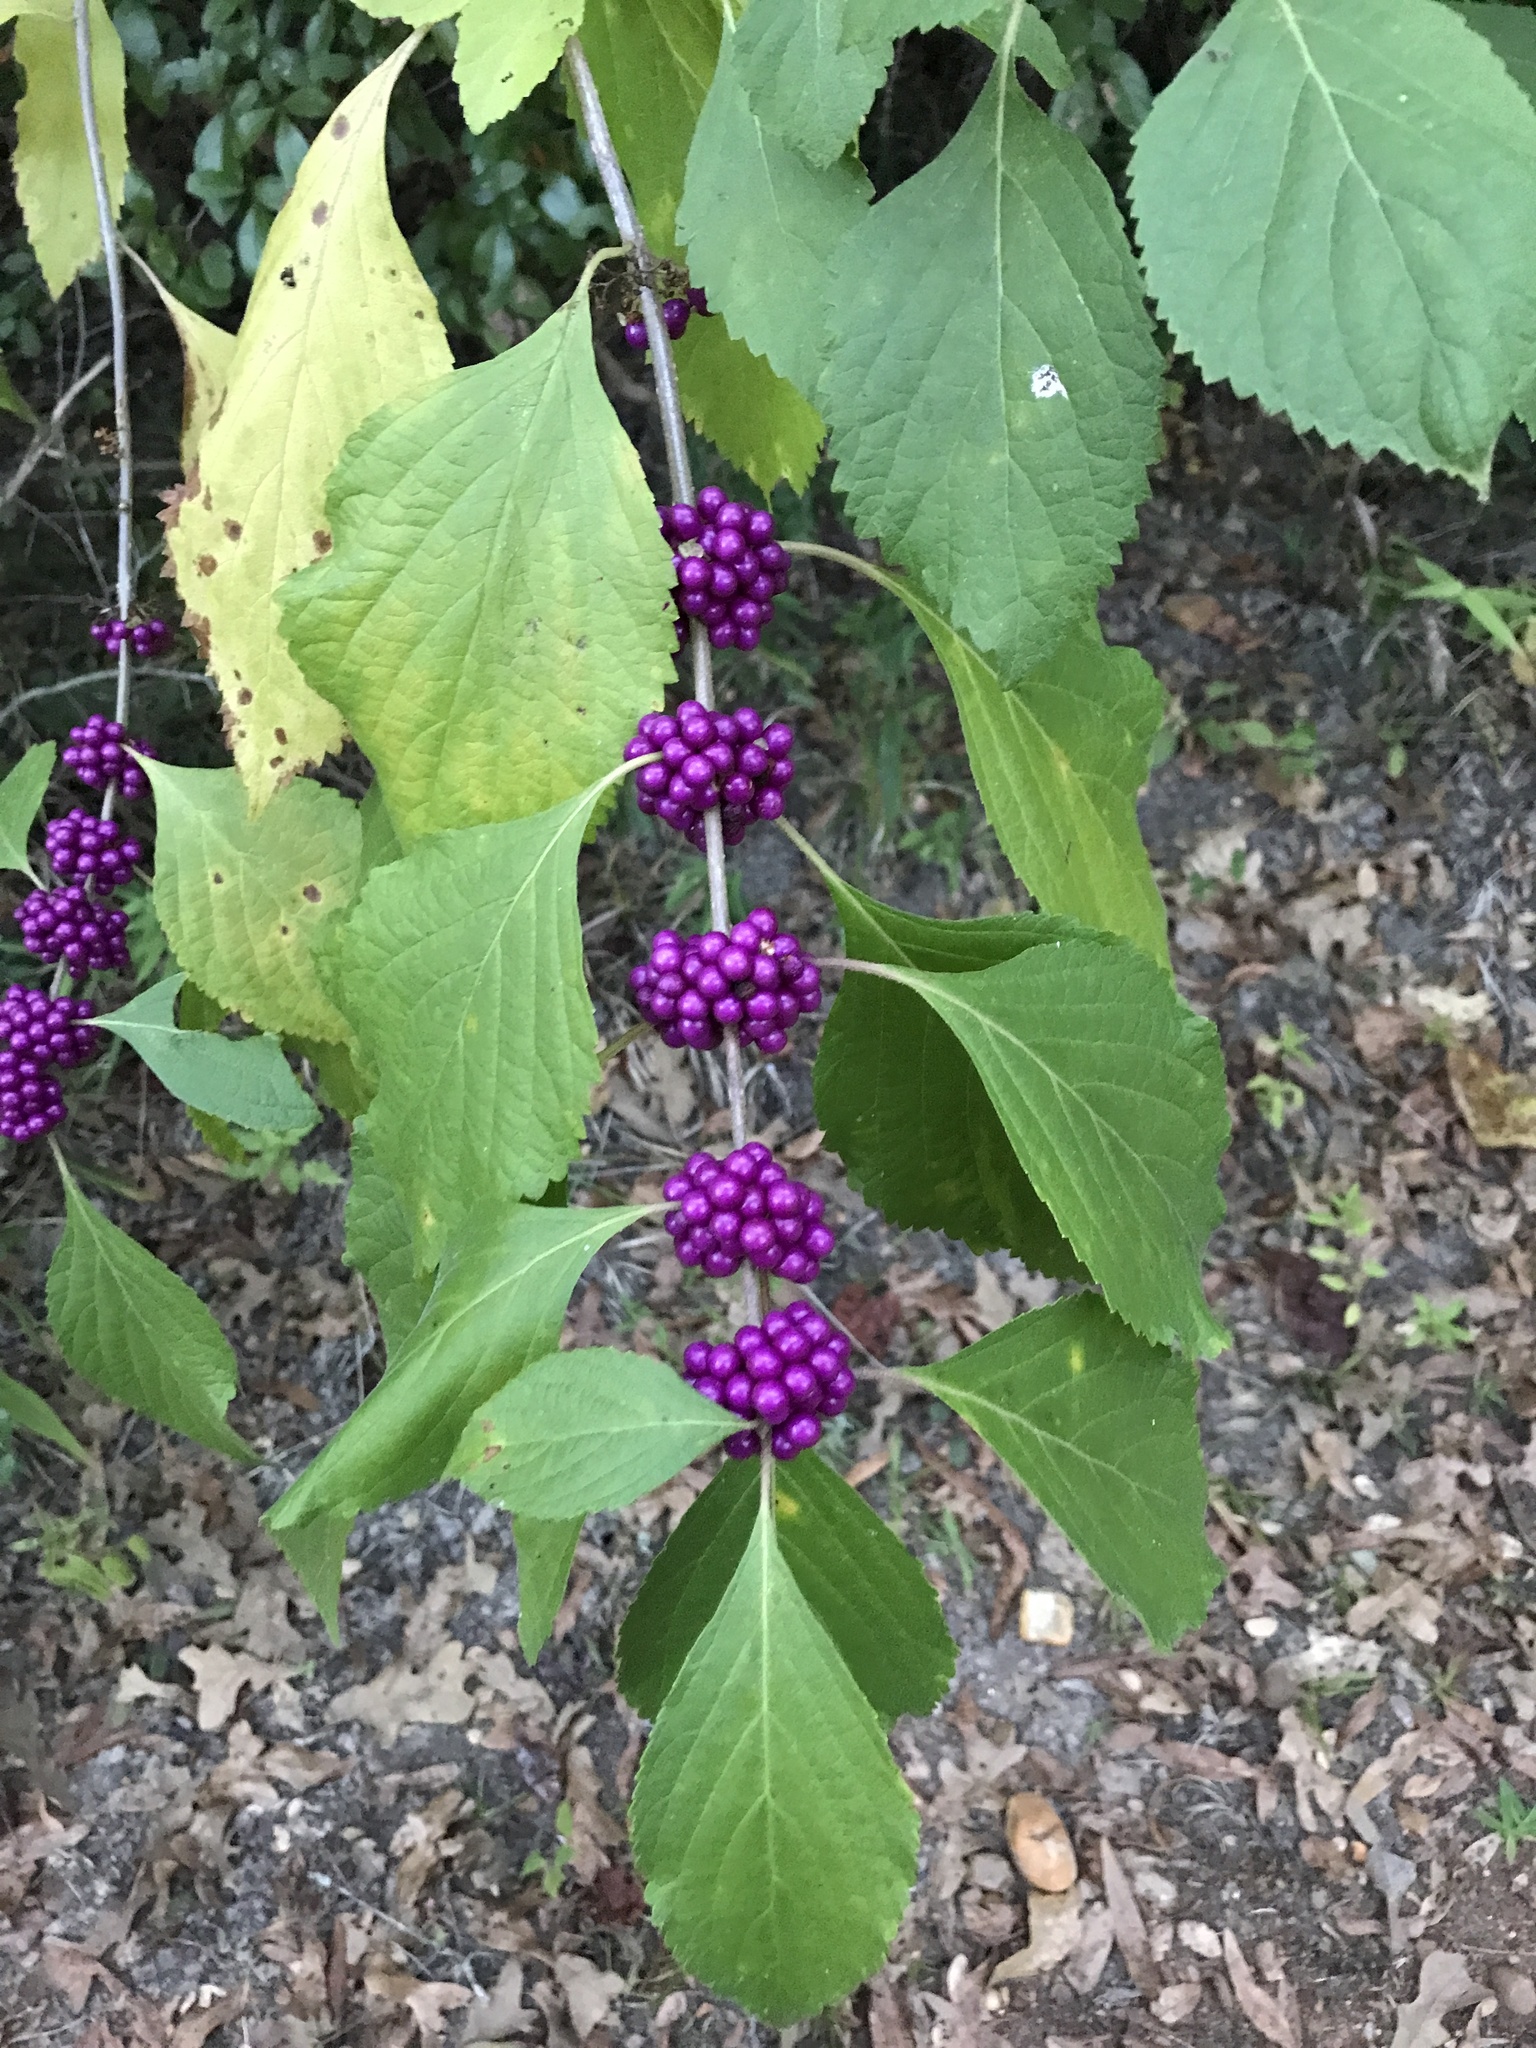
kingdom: Plantae
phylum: Tracheophyta
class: Magnoliopsida
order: Lamiales
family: Lamiaceae
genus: Callicarpa
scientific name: Callicarpa americana
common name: American beautyberry
